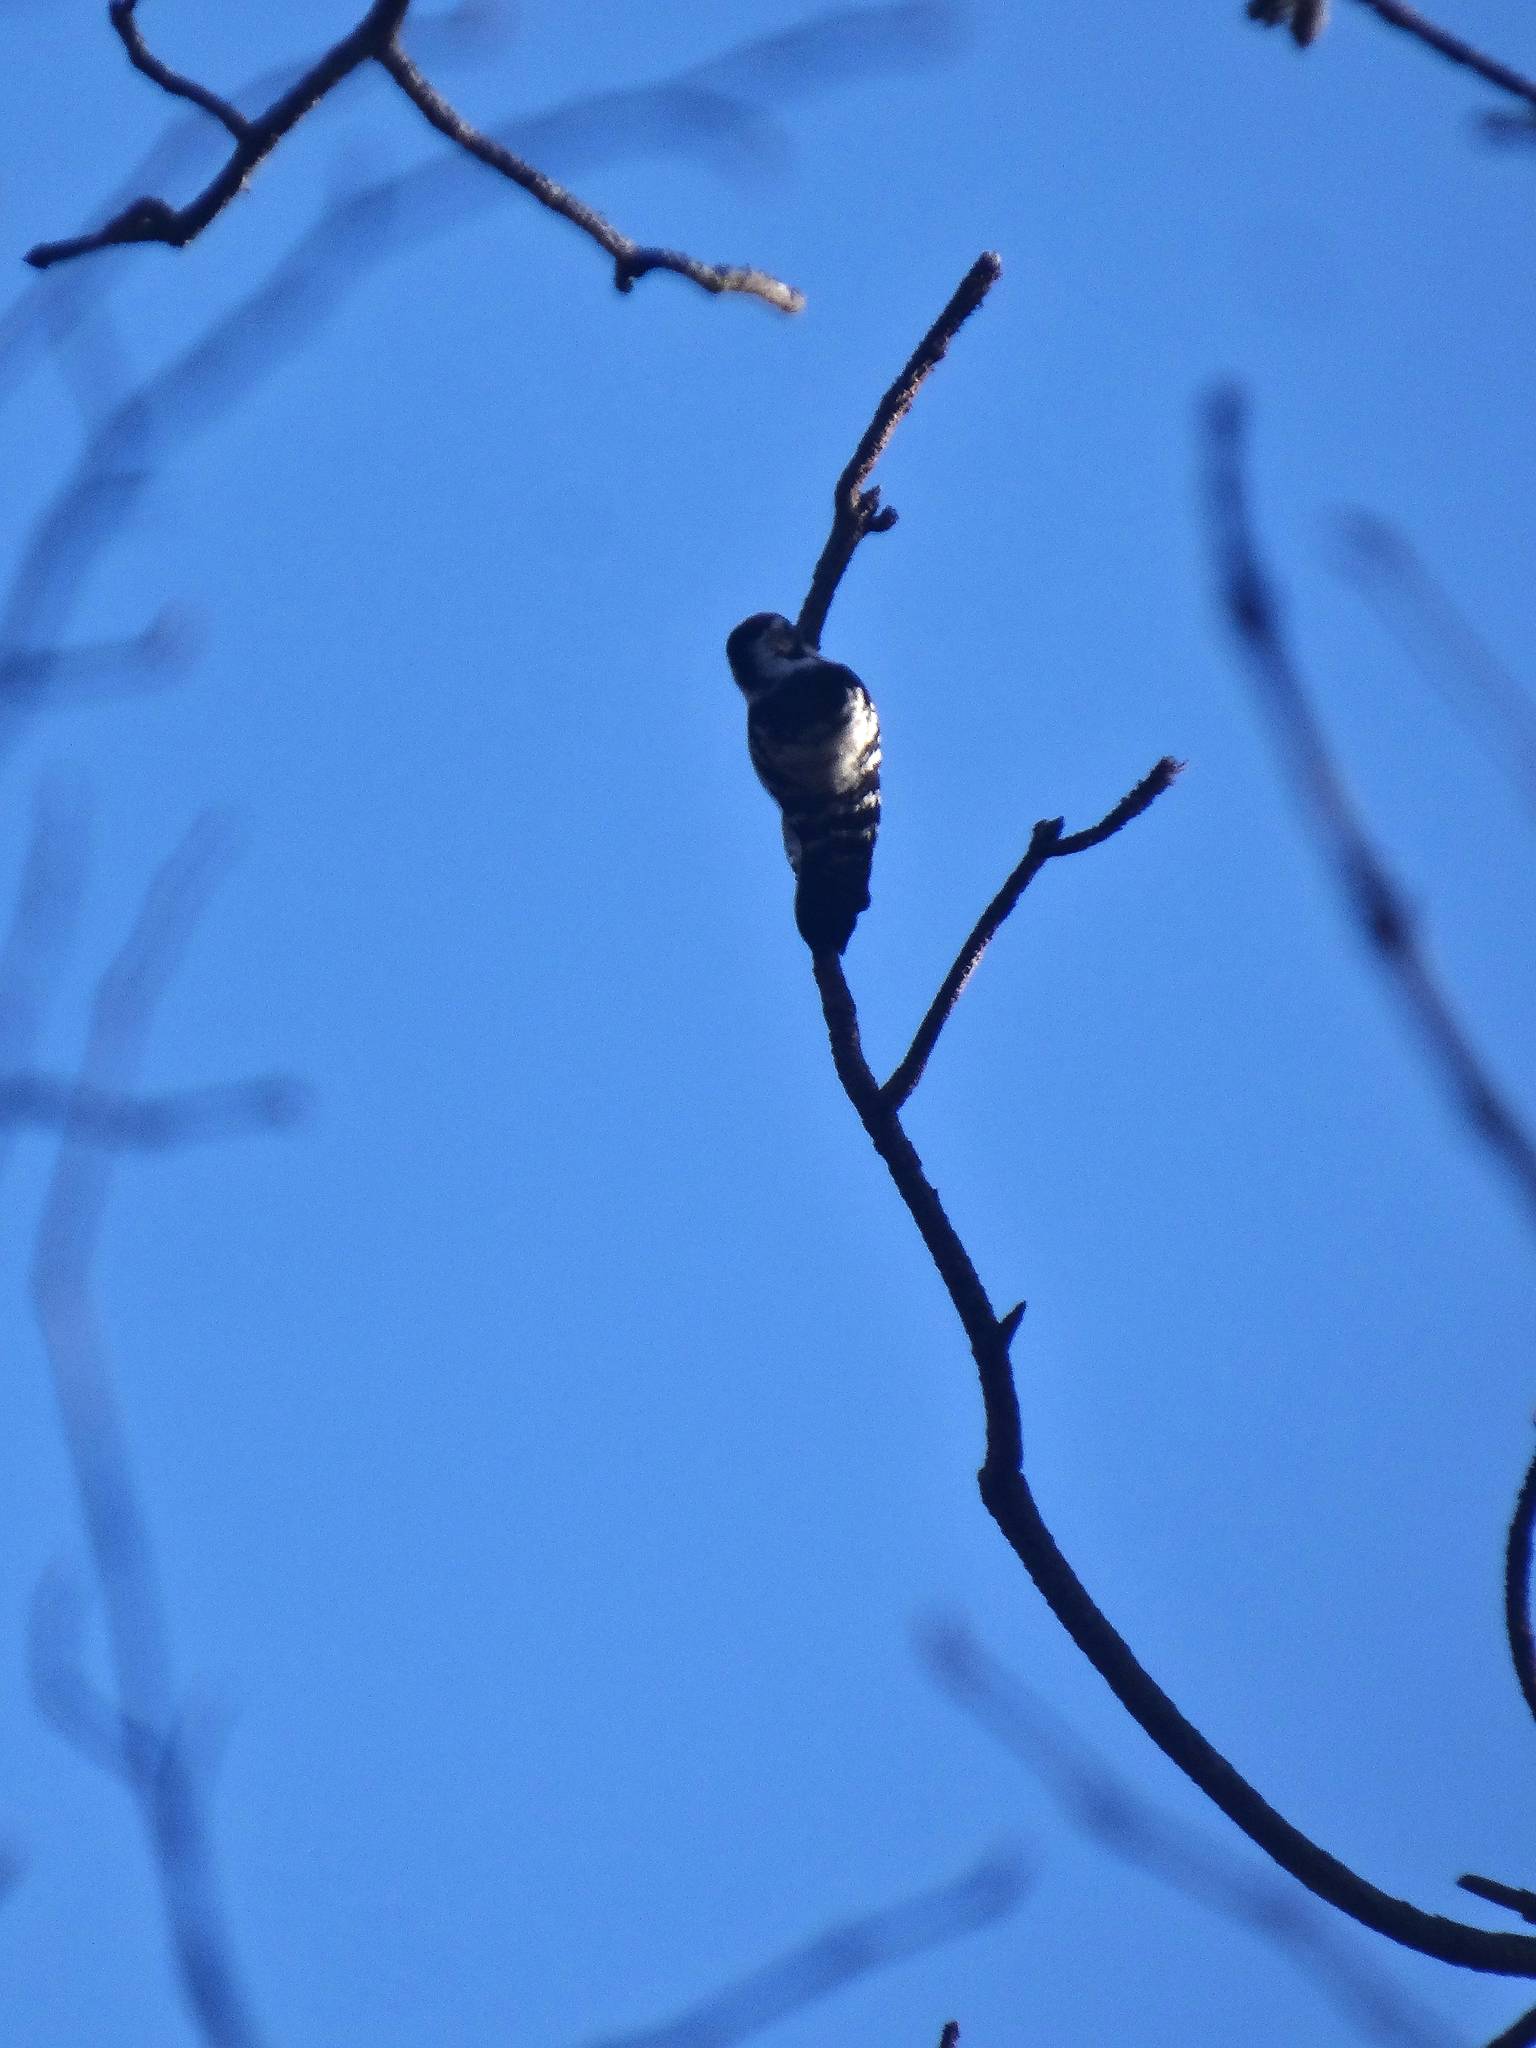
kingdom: Animalia
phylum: Chordata
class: Aves
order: Piciformes
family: Picidae
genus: Dryobates
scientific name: Dryobates minor
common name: Lesser spotted woodpecker
